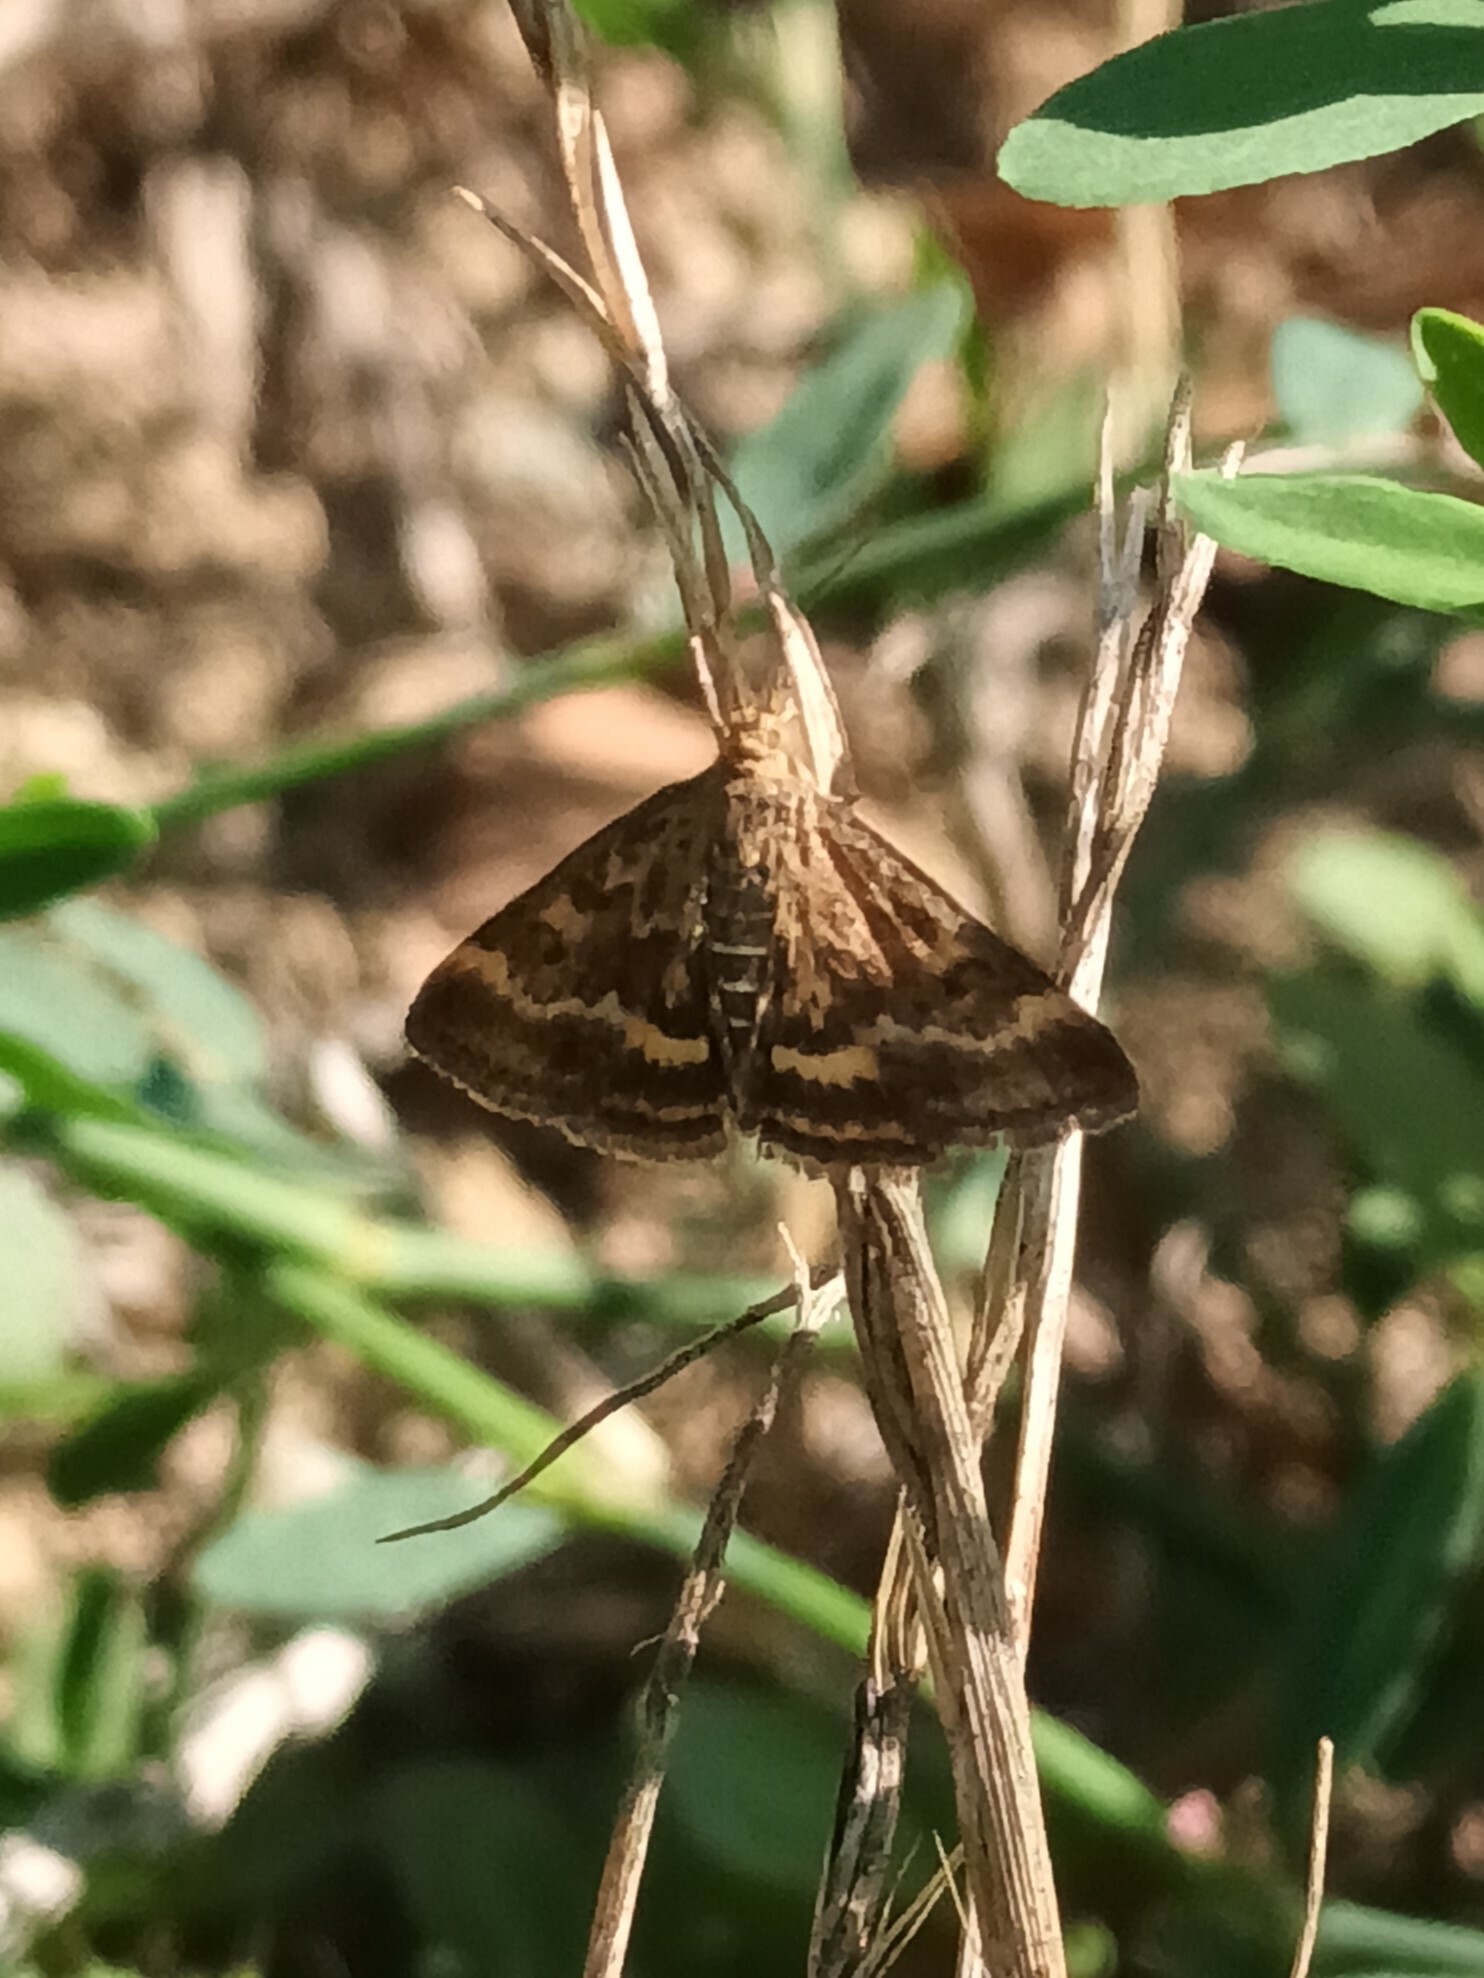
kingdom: Animalia
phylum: Arthropoda
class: Insecta
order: Lepidoptera
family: Crambidae
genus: Pyrausta
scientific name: Pyrausta despicata
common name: Straw-barred pearl
